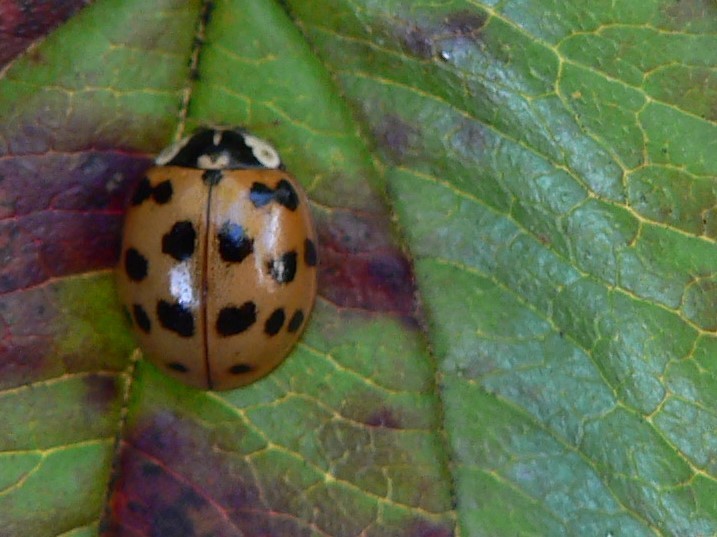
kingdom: Animalia
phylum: Arthropoda
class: Insecta
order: Coleoptera
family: Coccinellidae
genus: Harmonia
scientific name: Harmonia axyridis
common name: Harlequin ladybird
